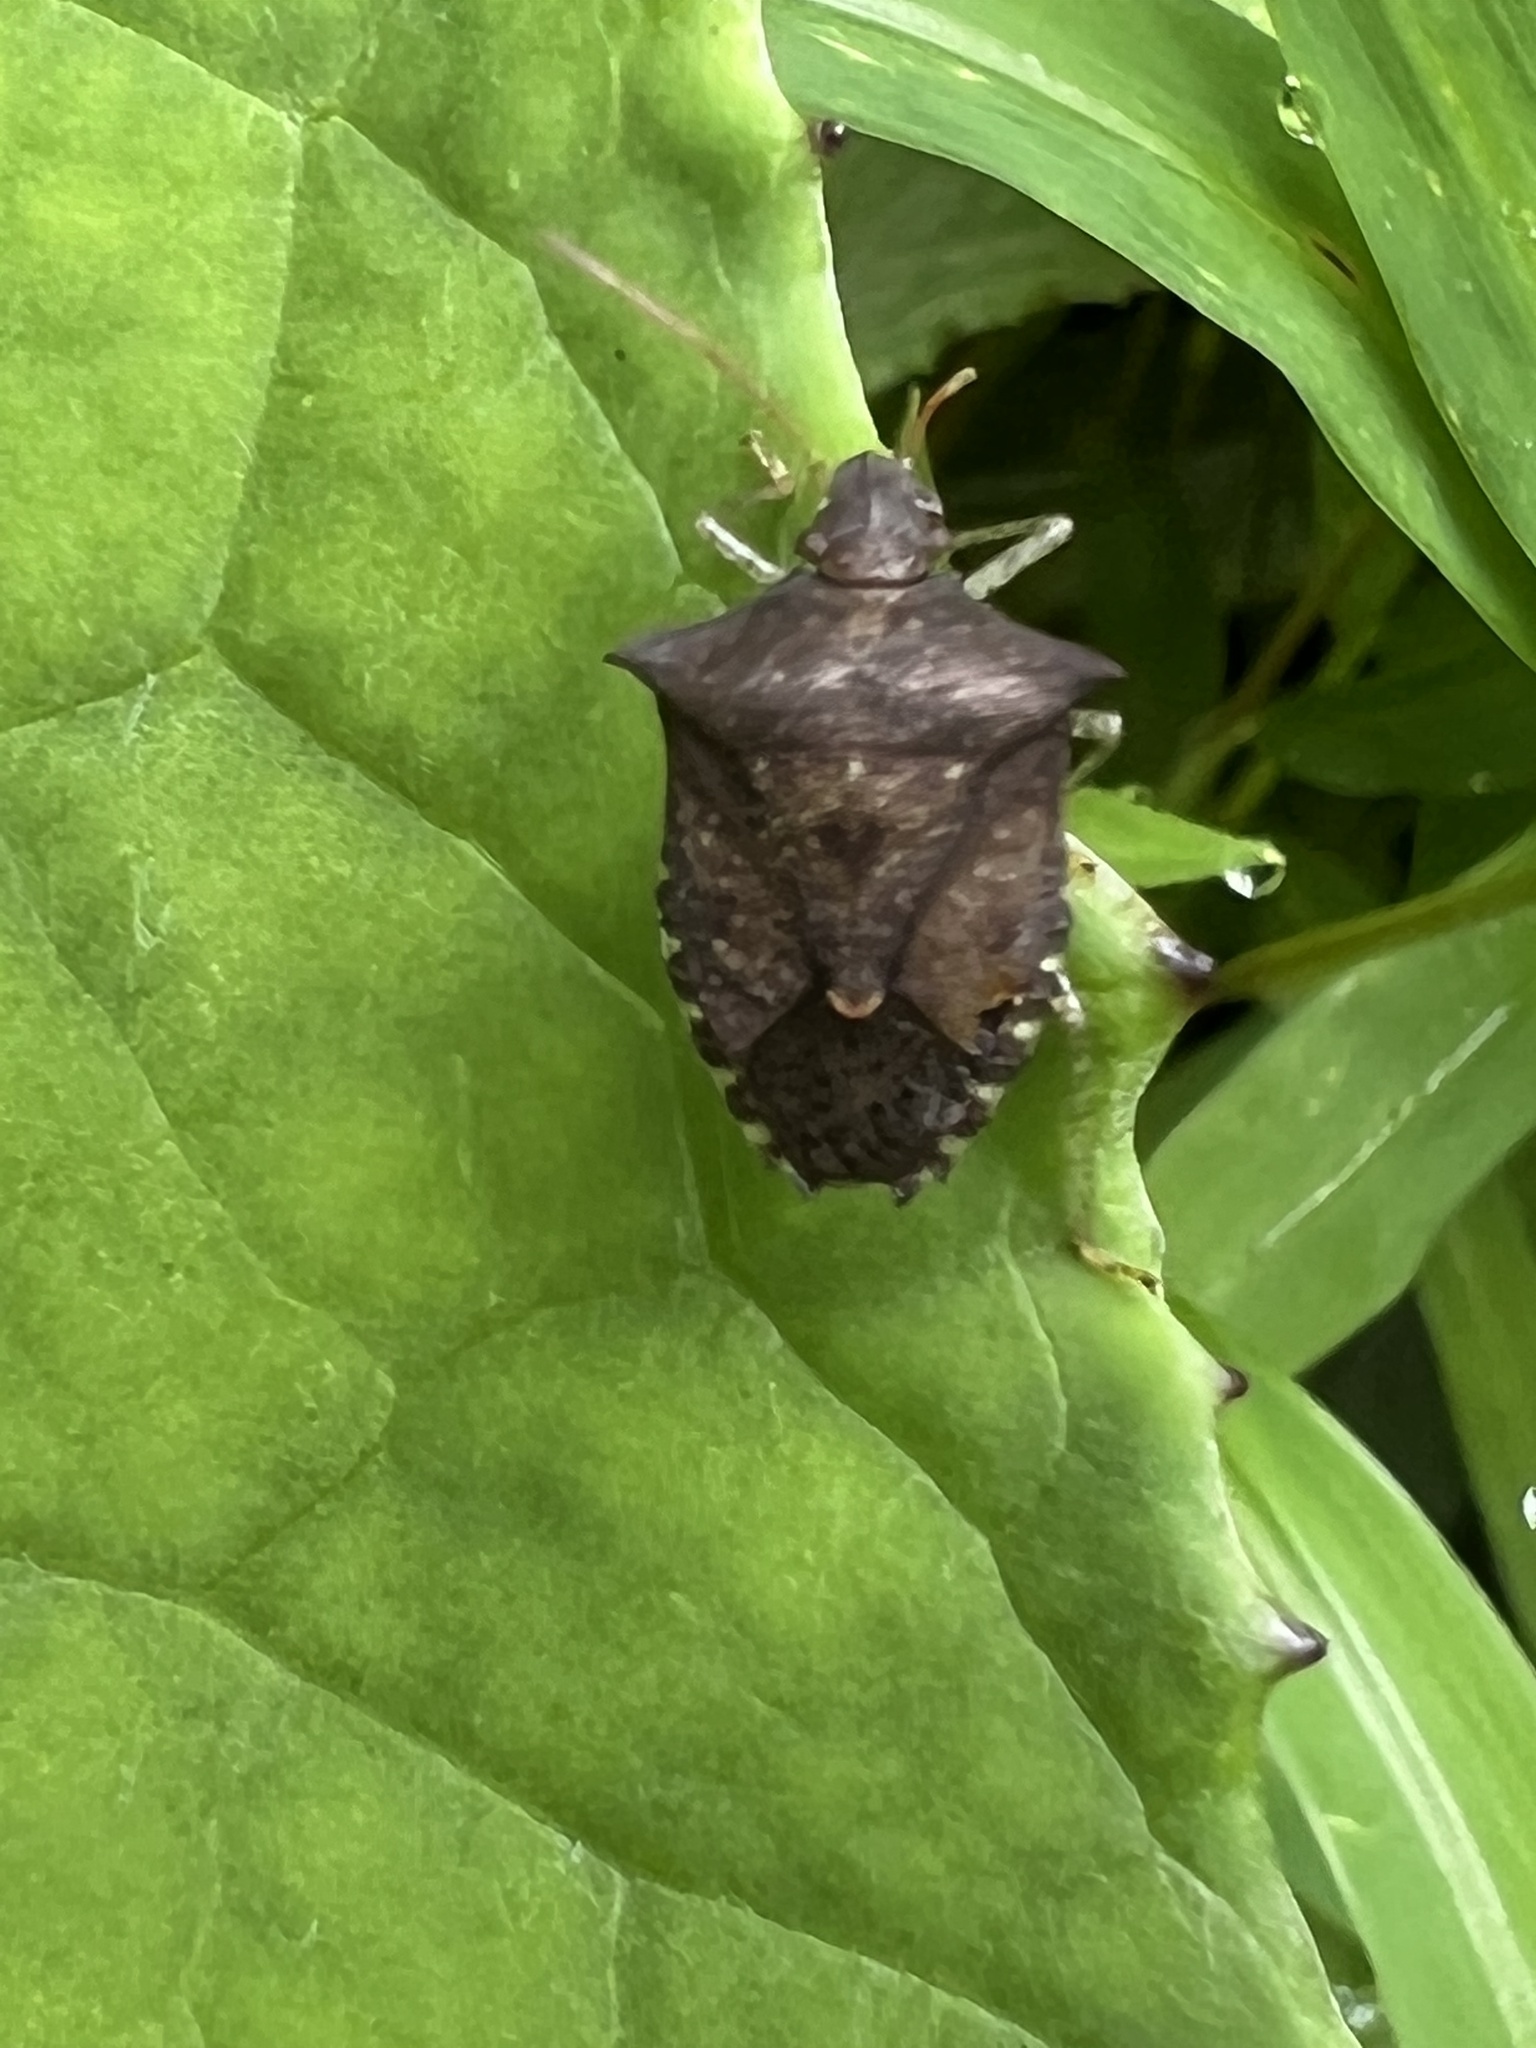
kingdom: Animalia
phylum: Arthropoda
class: Insecta
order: Hemiptera
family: Pentatomidae
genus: Euschistus
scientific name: Euschistus tristigmus
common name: Dusky stink bug
